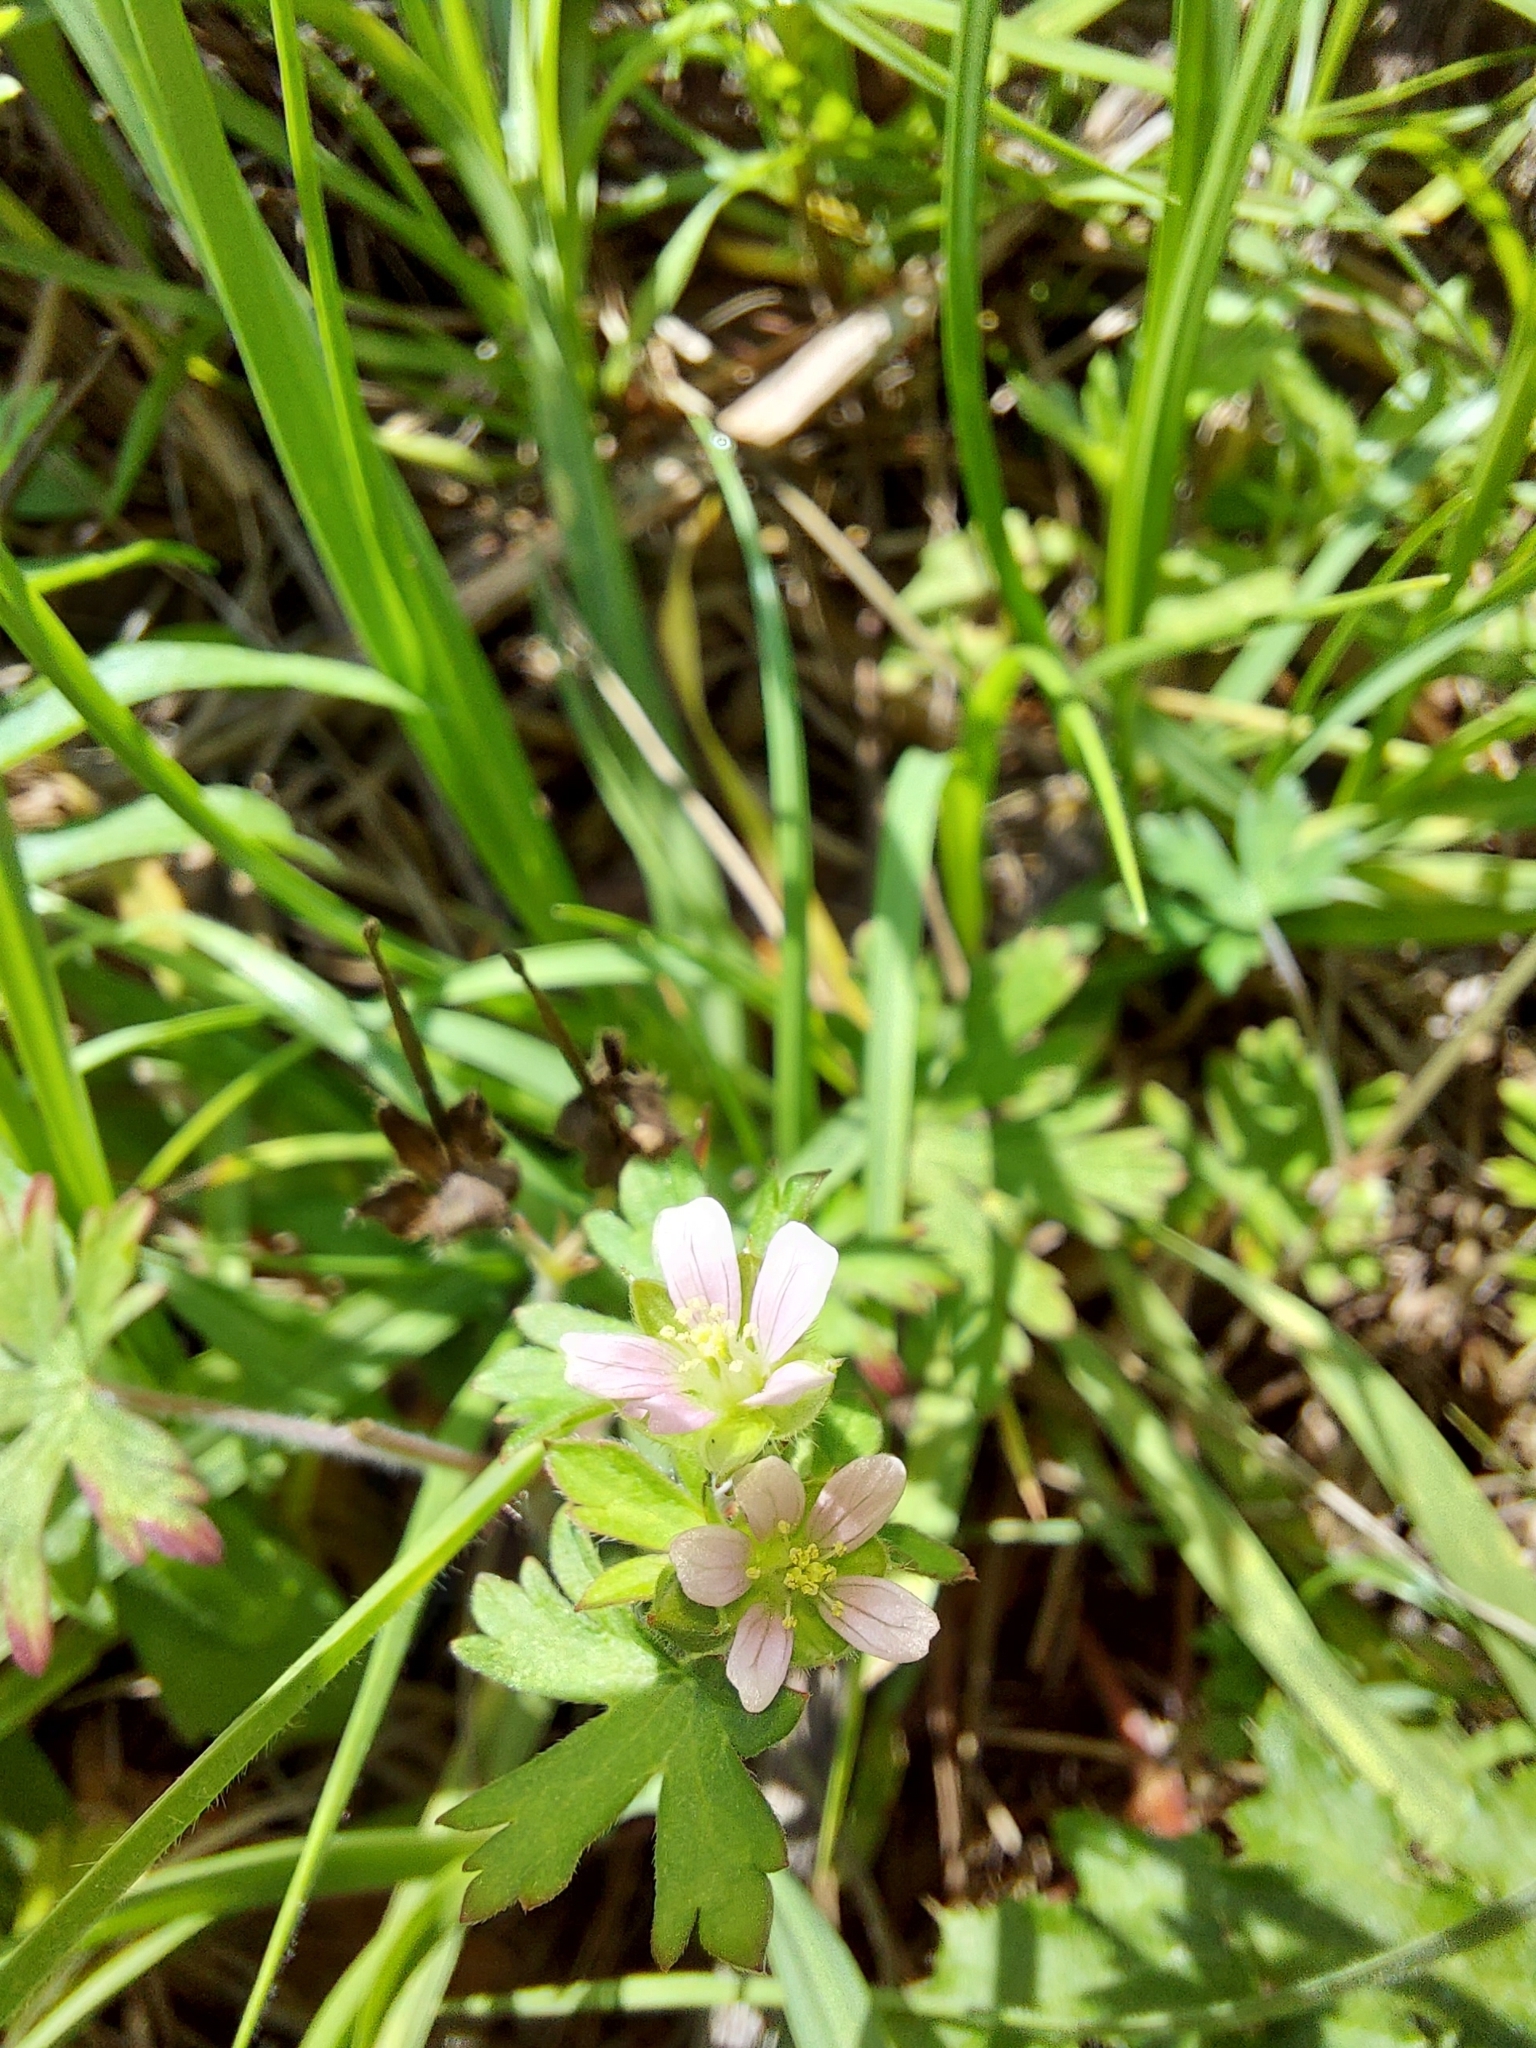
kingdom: Plantae
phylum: Tracheophyta
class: Magnoliopsida
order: Geraniales
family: Geraniaceae
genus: Geranium
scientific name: Geranium carolinianum
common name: Carolina crane's-bill
